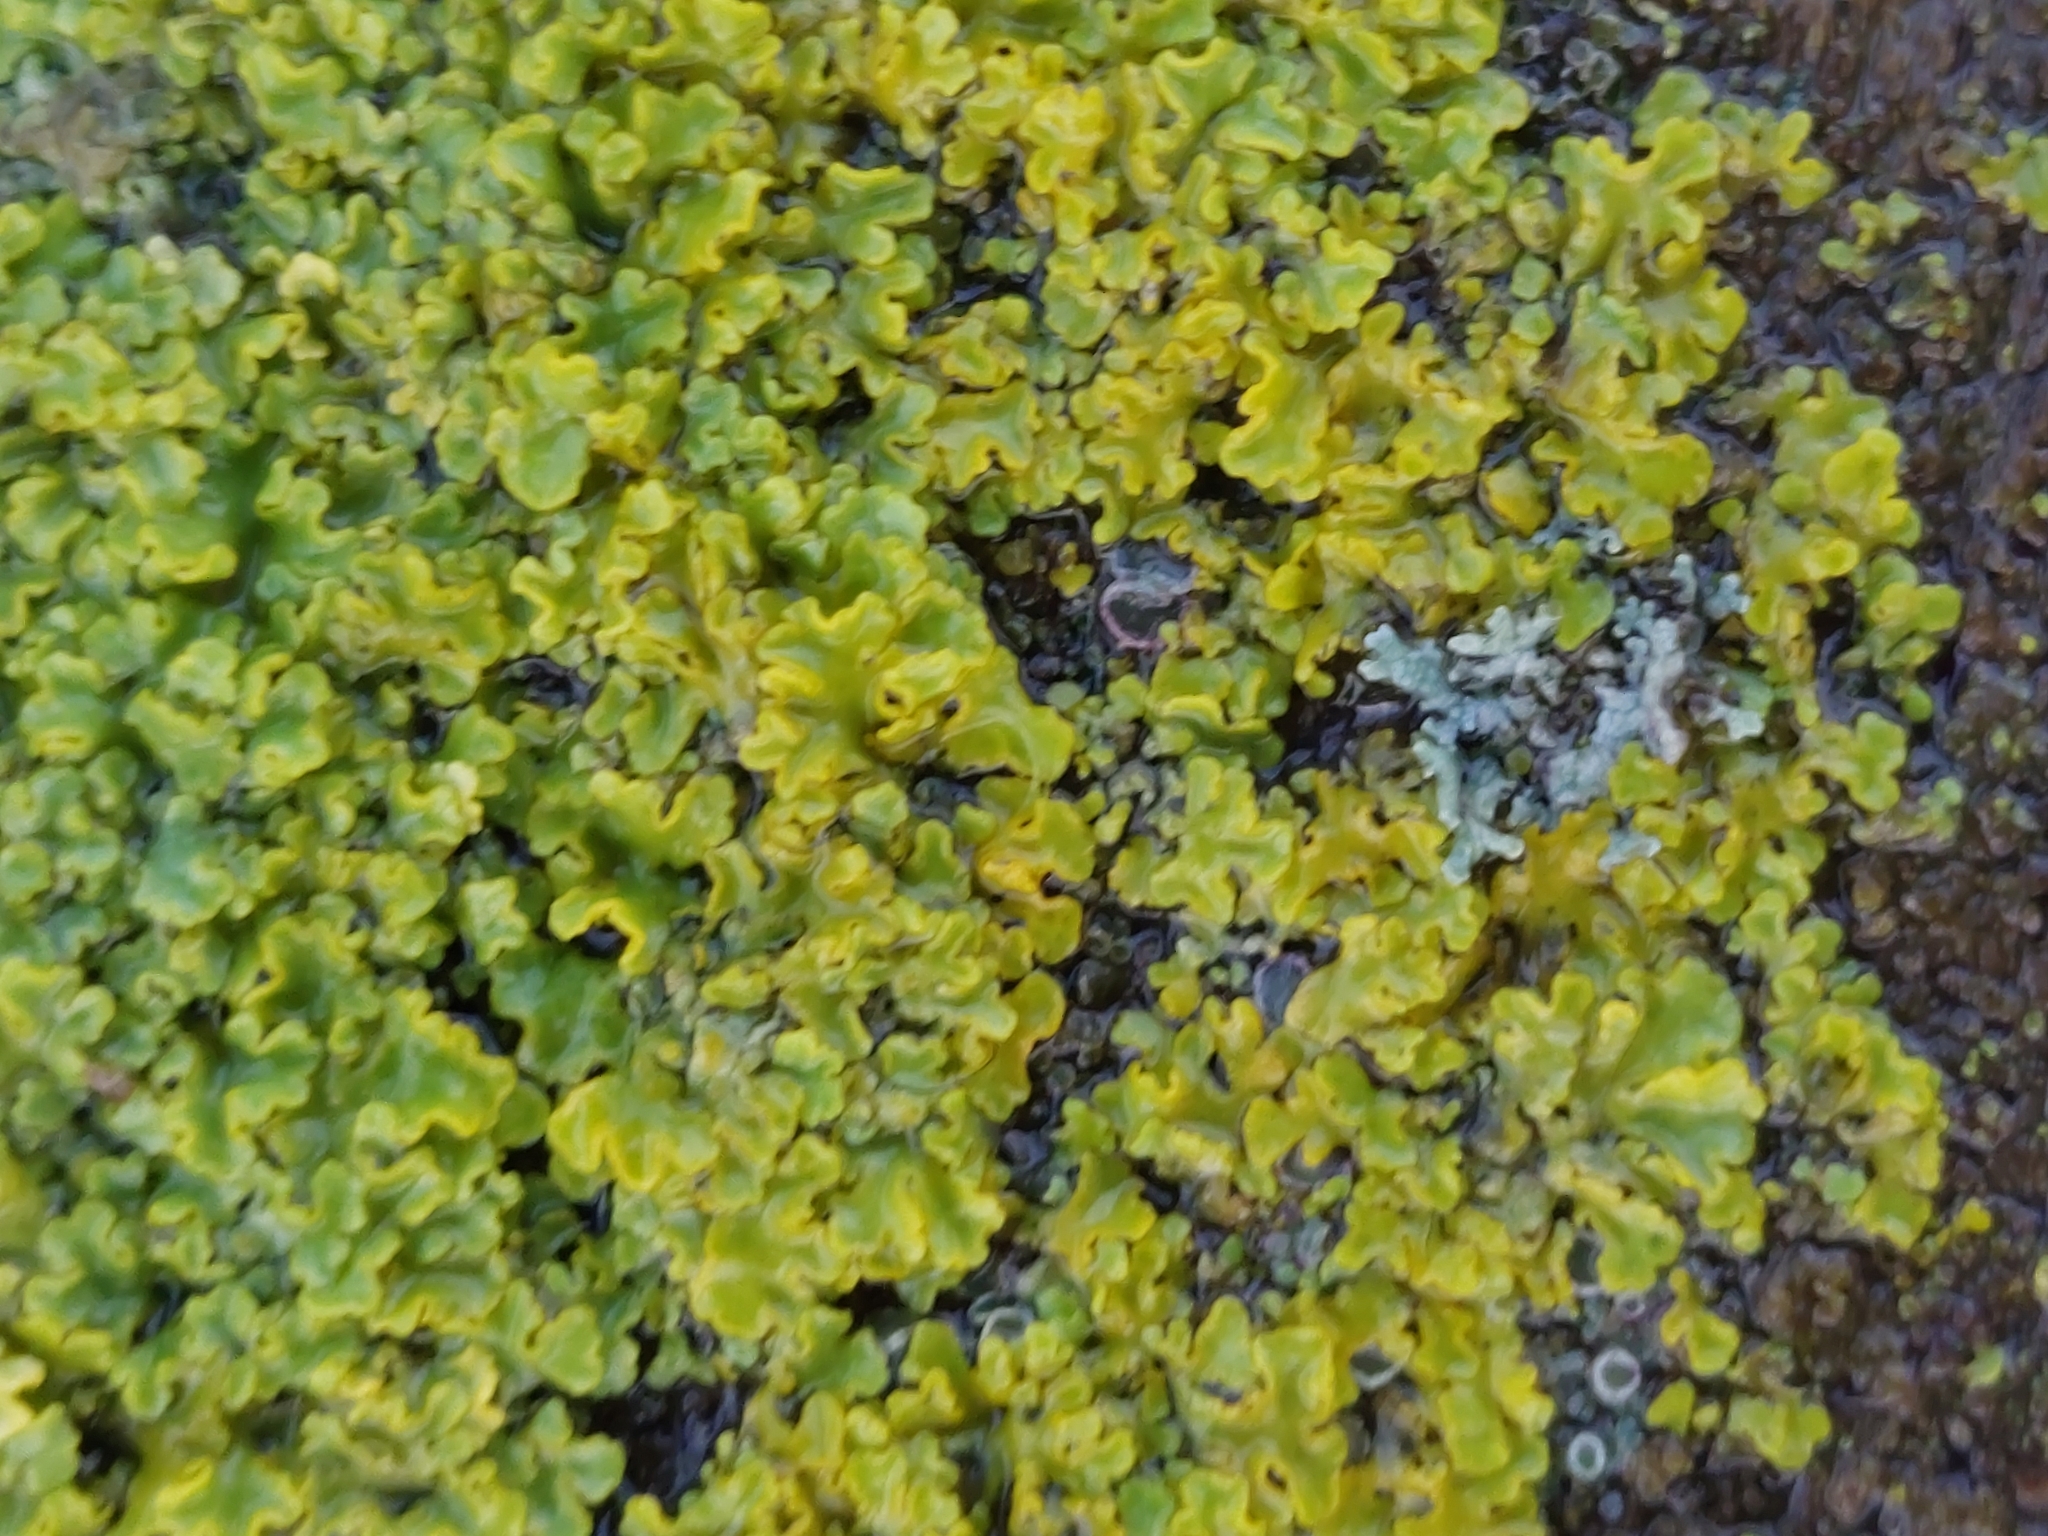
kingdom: Fungi
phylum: Ascomycota
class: Lecanoromycetes
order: Teloschistales
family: Teloschistaceae
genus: Xanthoria
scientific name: Xanthoria parietina
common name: Common orange lichen
